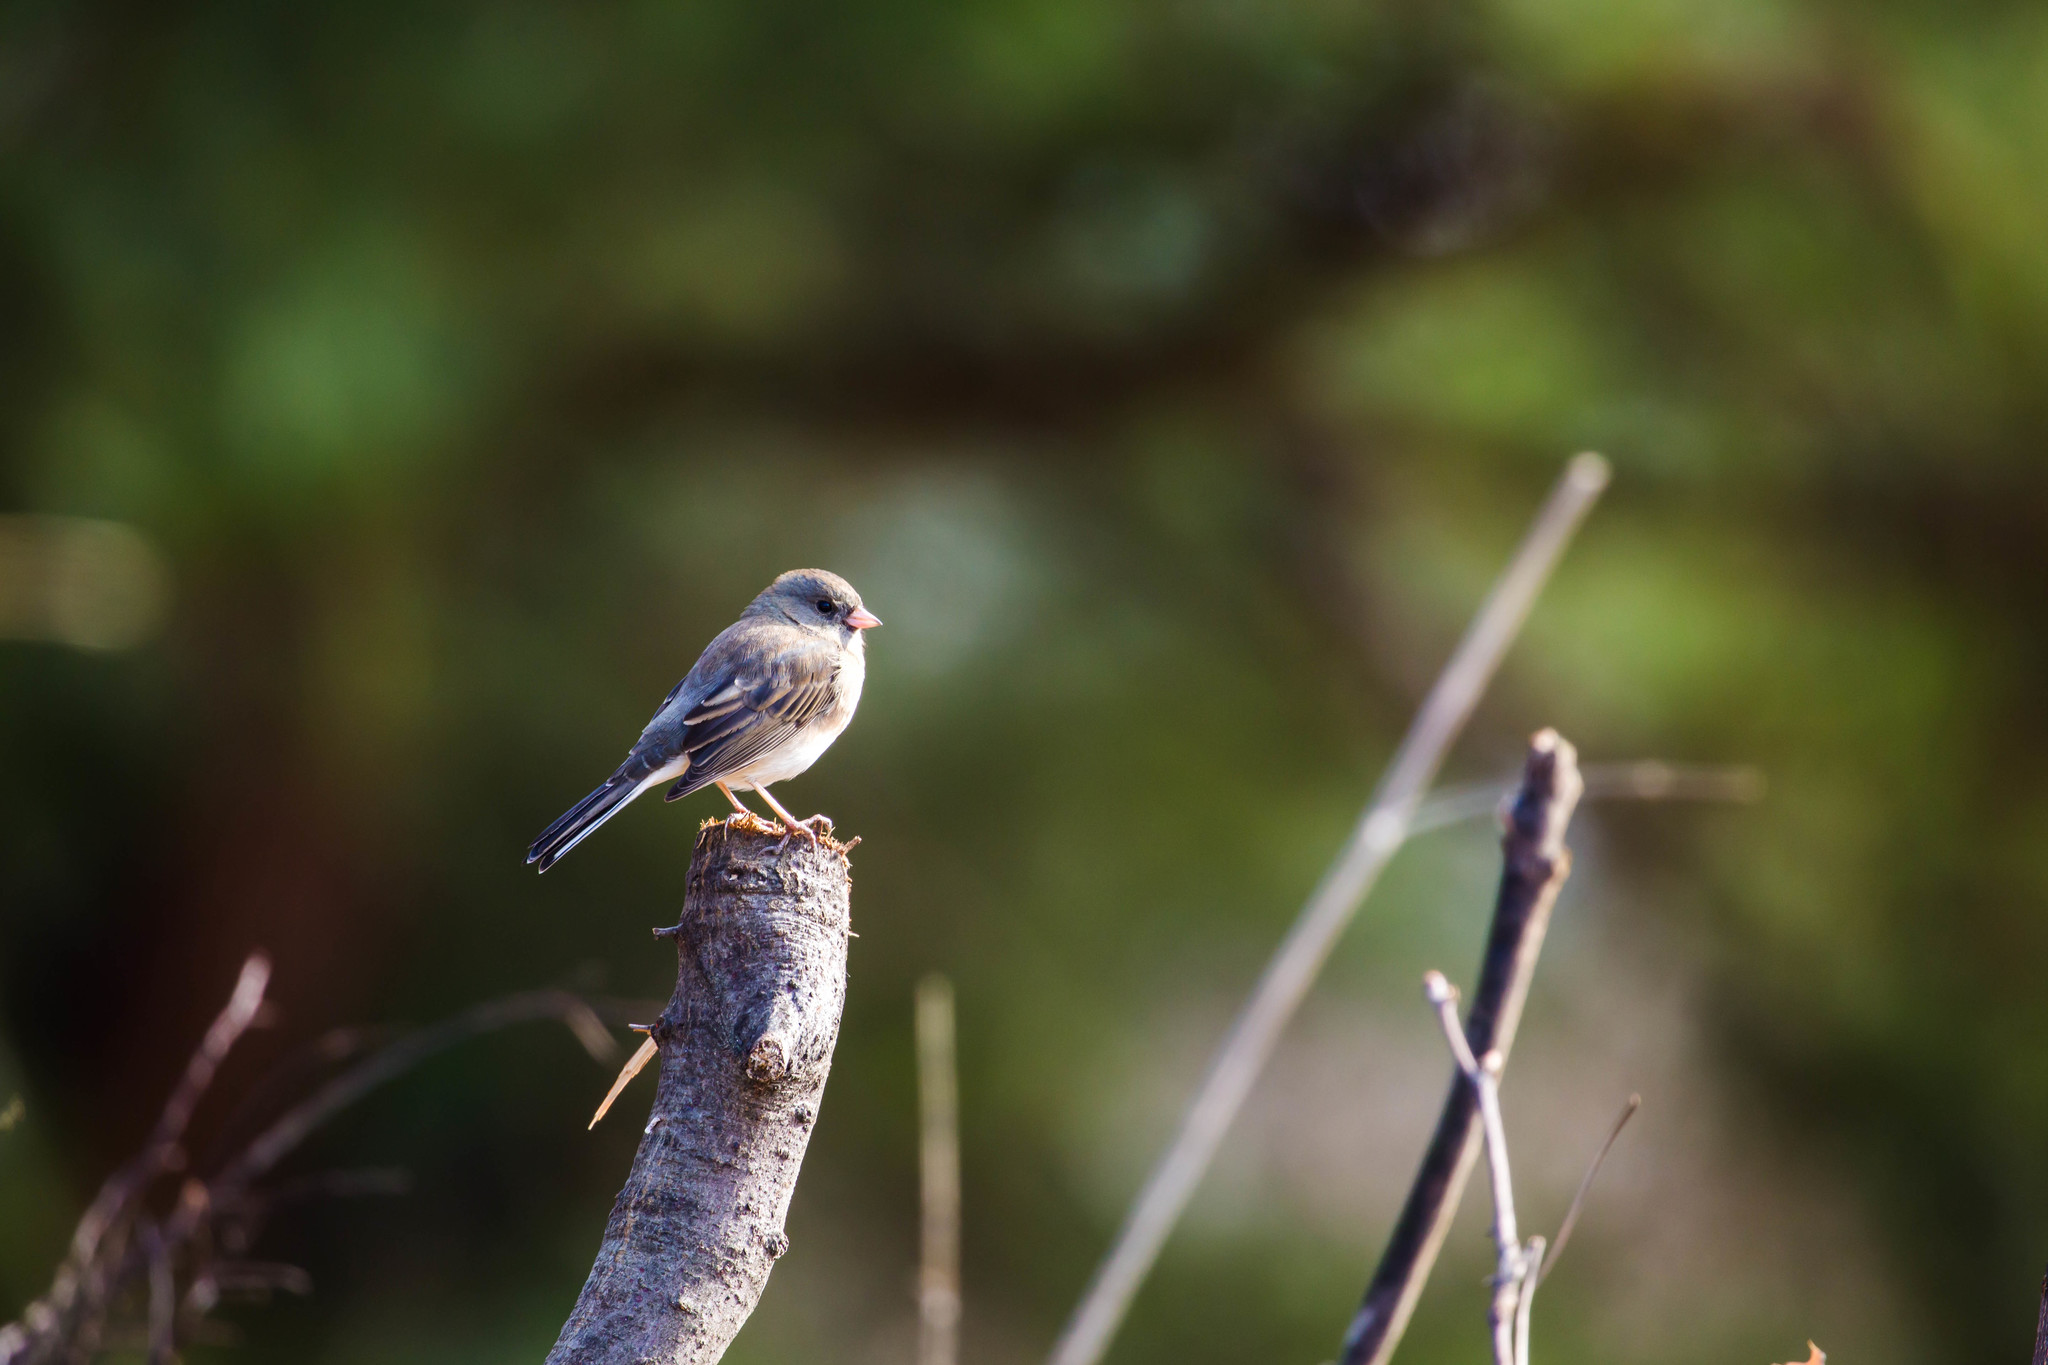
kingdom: Animalia
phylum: Chordata
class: Aves
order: Passeriformes
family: Passerellidae
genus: Junco
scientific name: Junco hyemalis
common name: Dark-eyed junco
